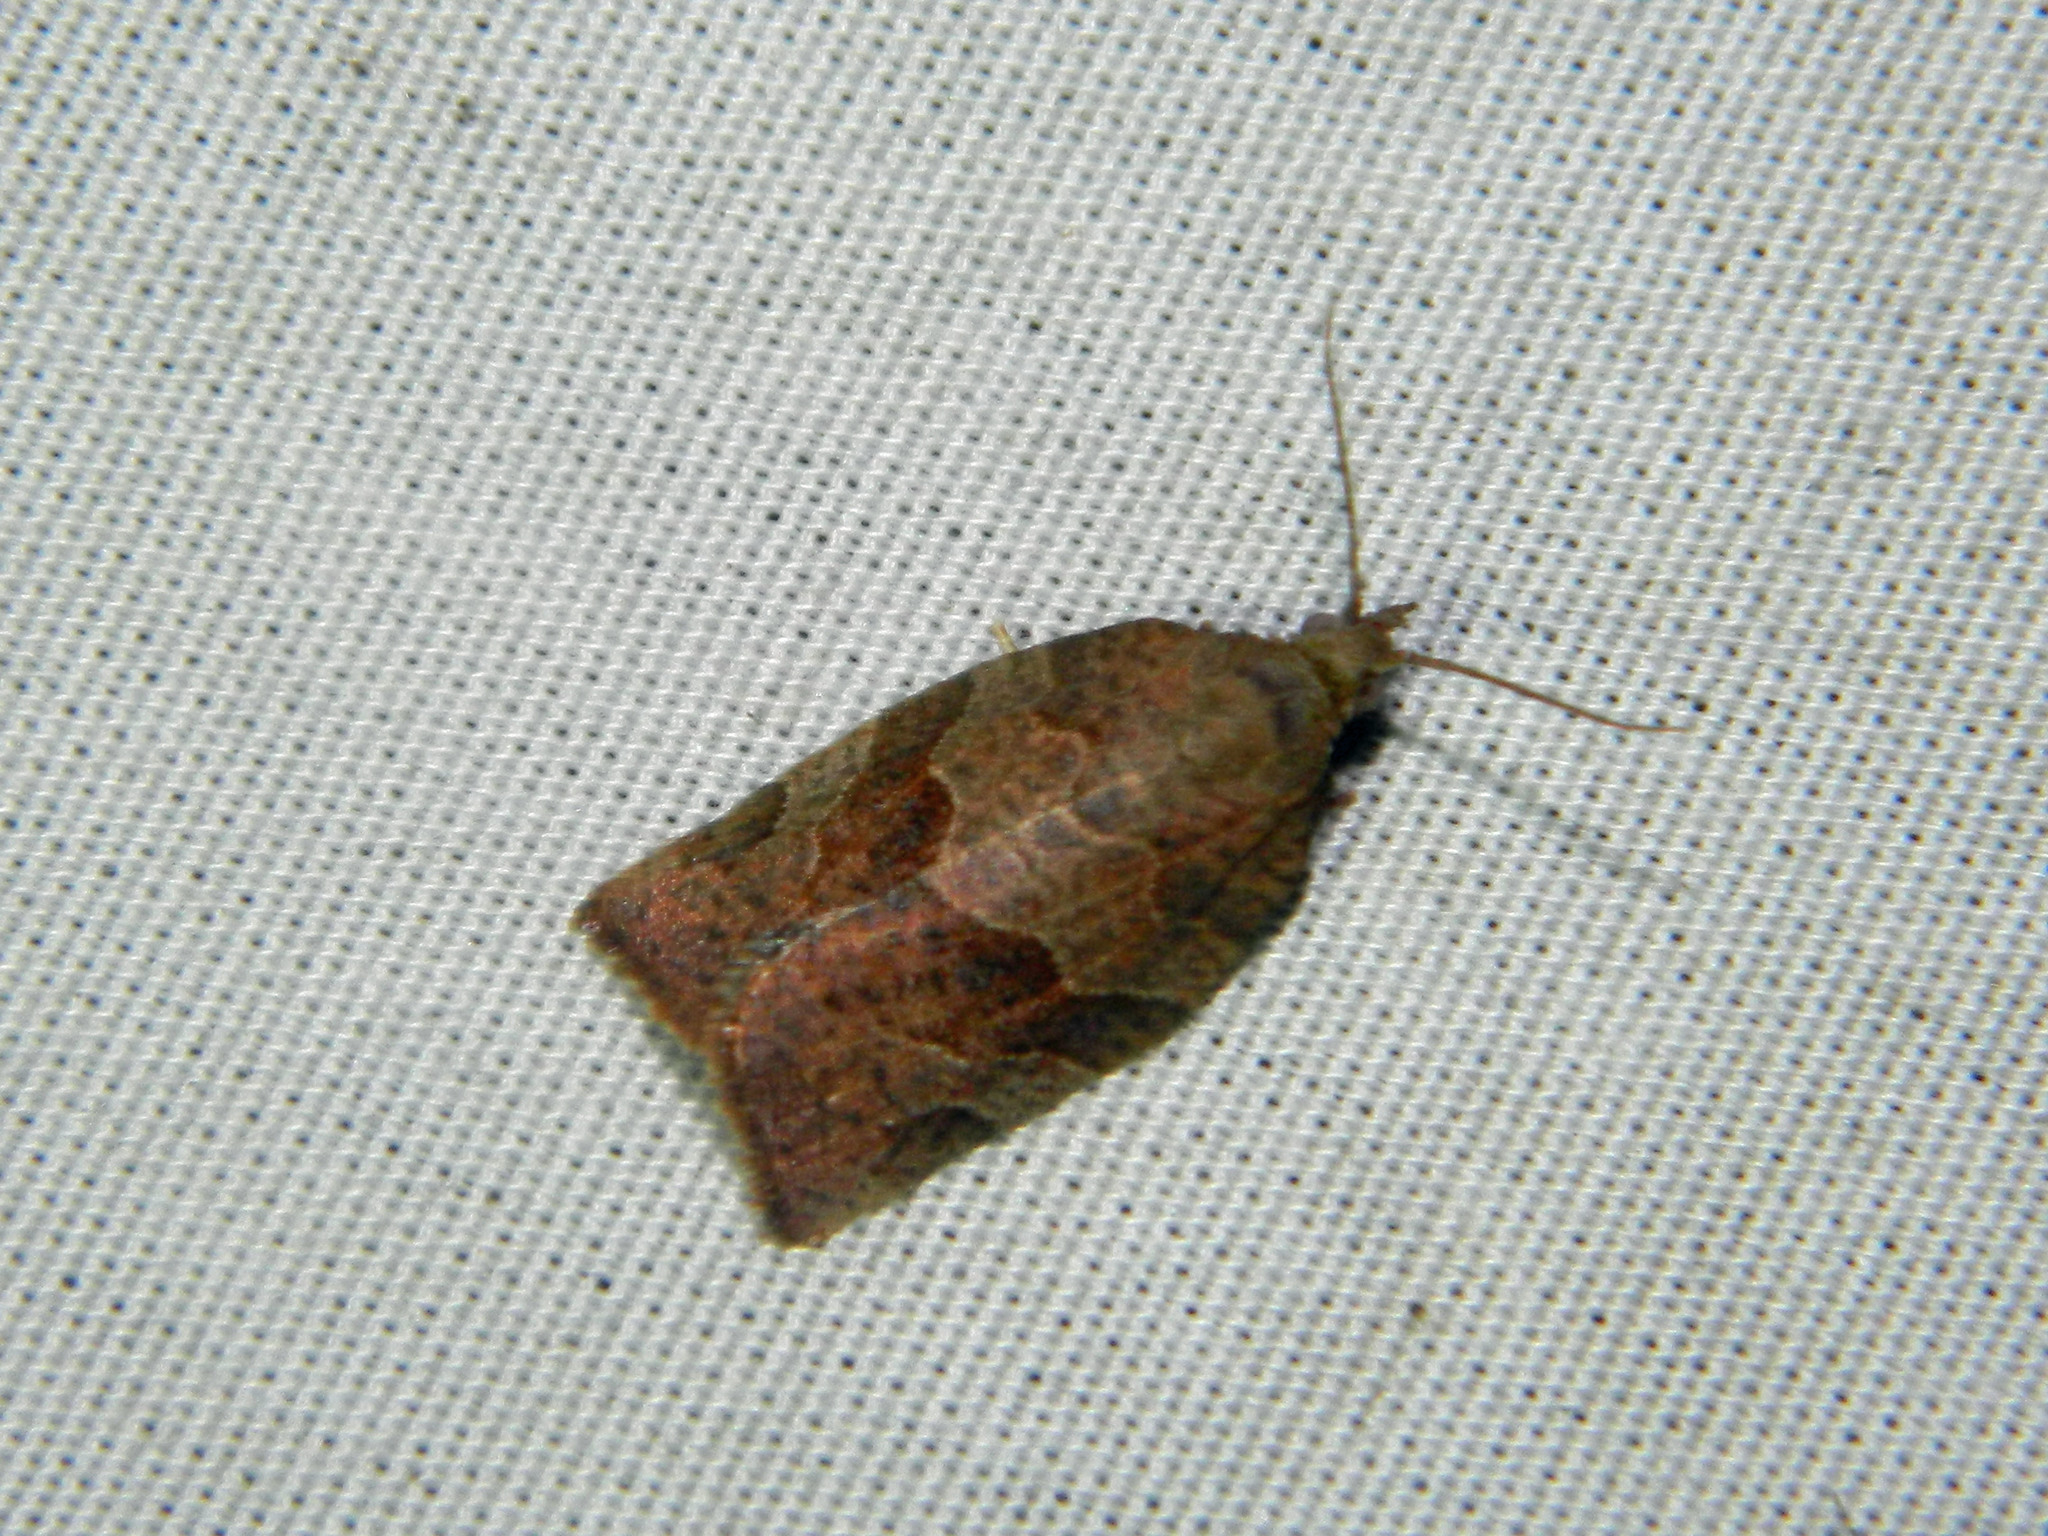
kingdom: Animalia
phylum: Arthropoda
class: Insecta
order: Lepidoptera
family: Tortricidae
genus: Pandemis
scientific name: Pandemis canadana
